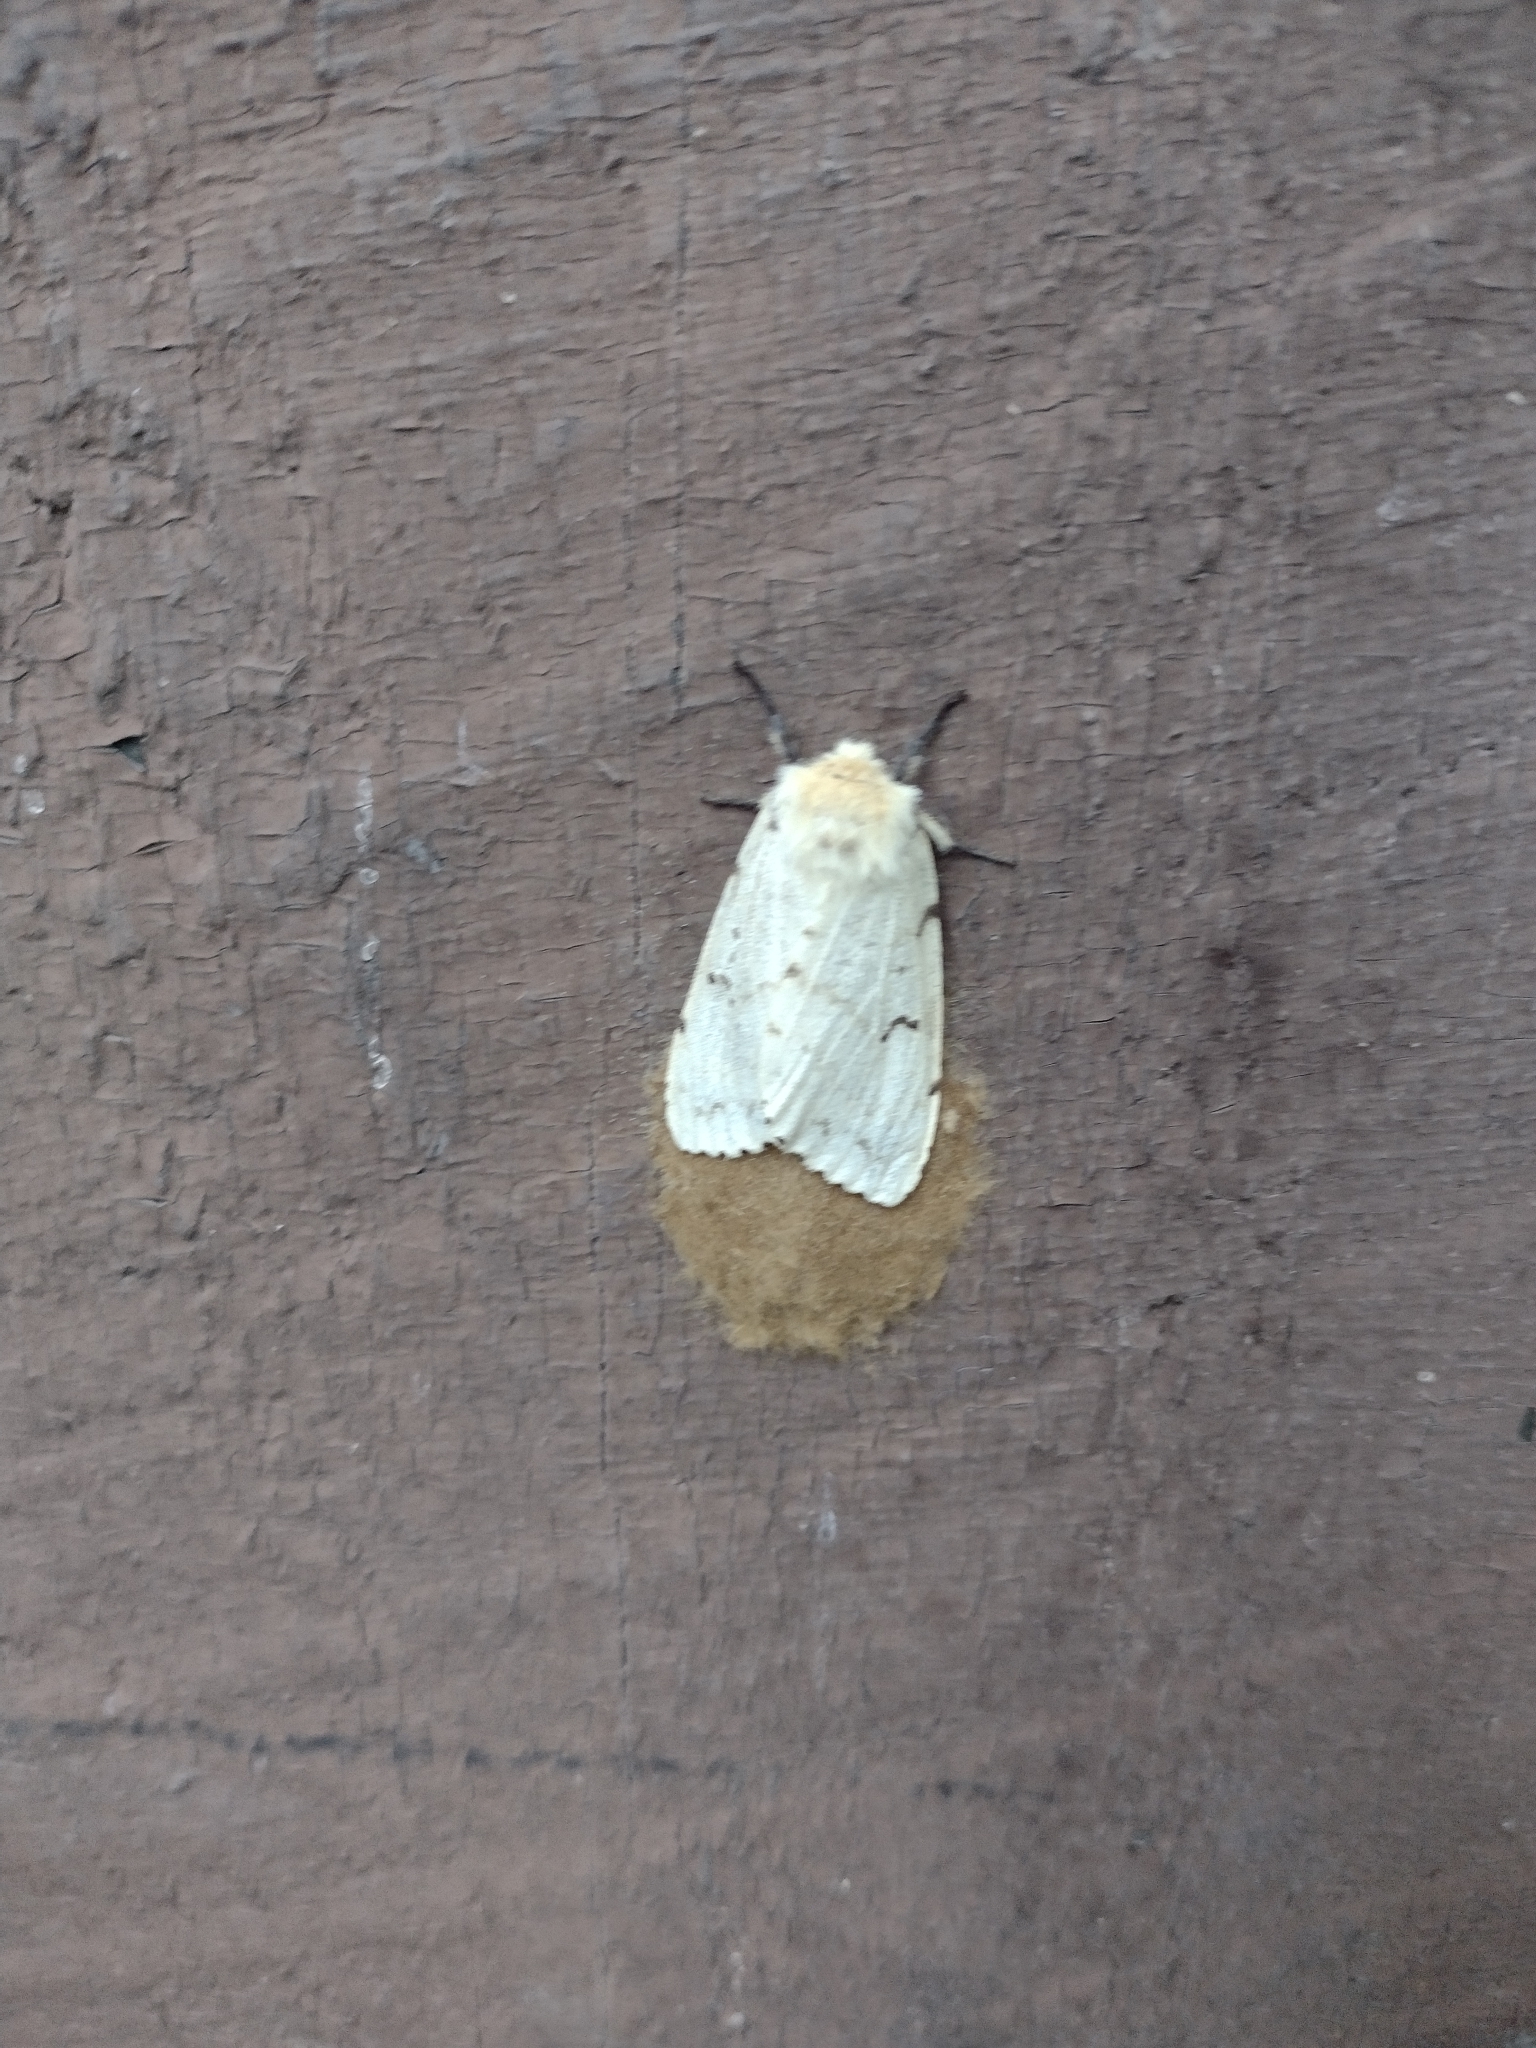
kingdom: Animalia
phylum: Arthropoda
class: Insecta
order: Lepidoptera
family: Erebidae
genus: Lymantria
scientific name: Lymantria dispar
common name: Gypsy moth
